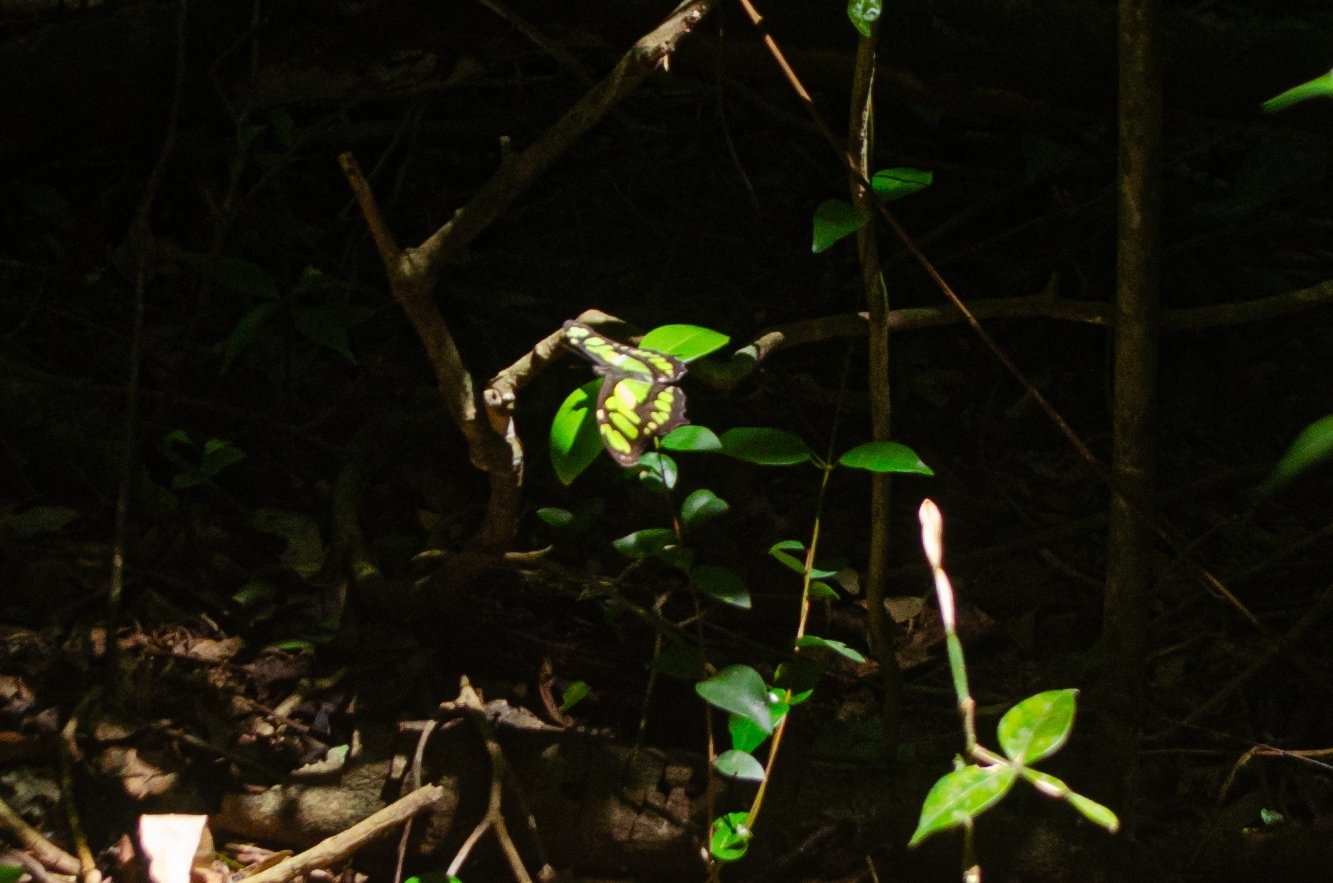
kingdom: Animalia
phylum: Arthropoda
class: Insecta
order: Lepidoptera
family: Nymphalidae
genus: Siproeta
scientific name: Siproeta stelenes
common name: Malachite
